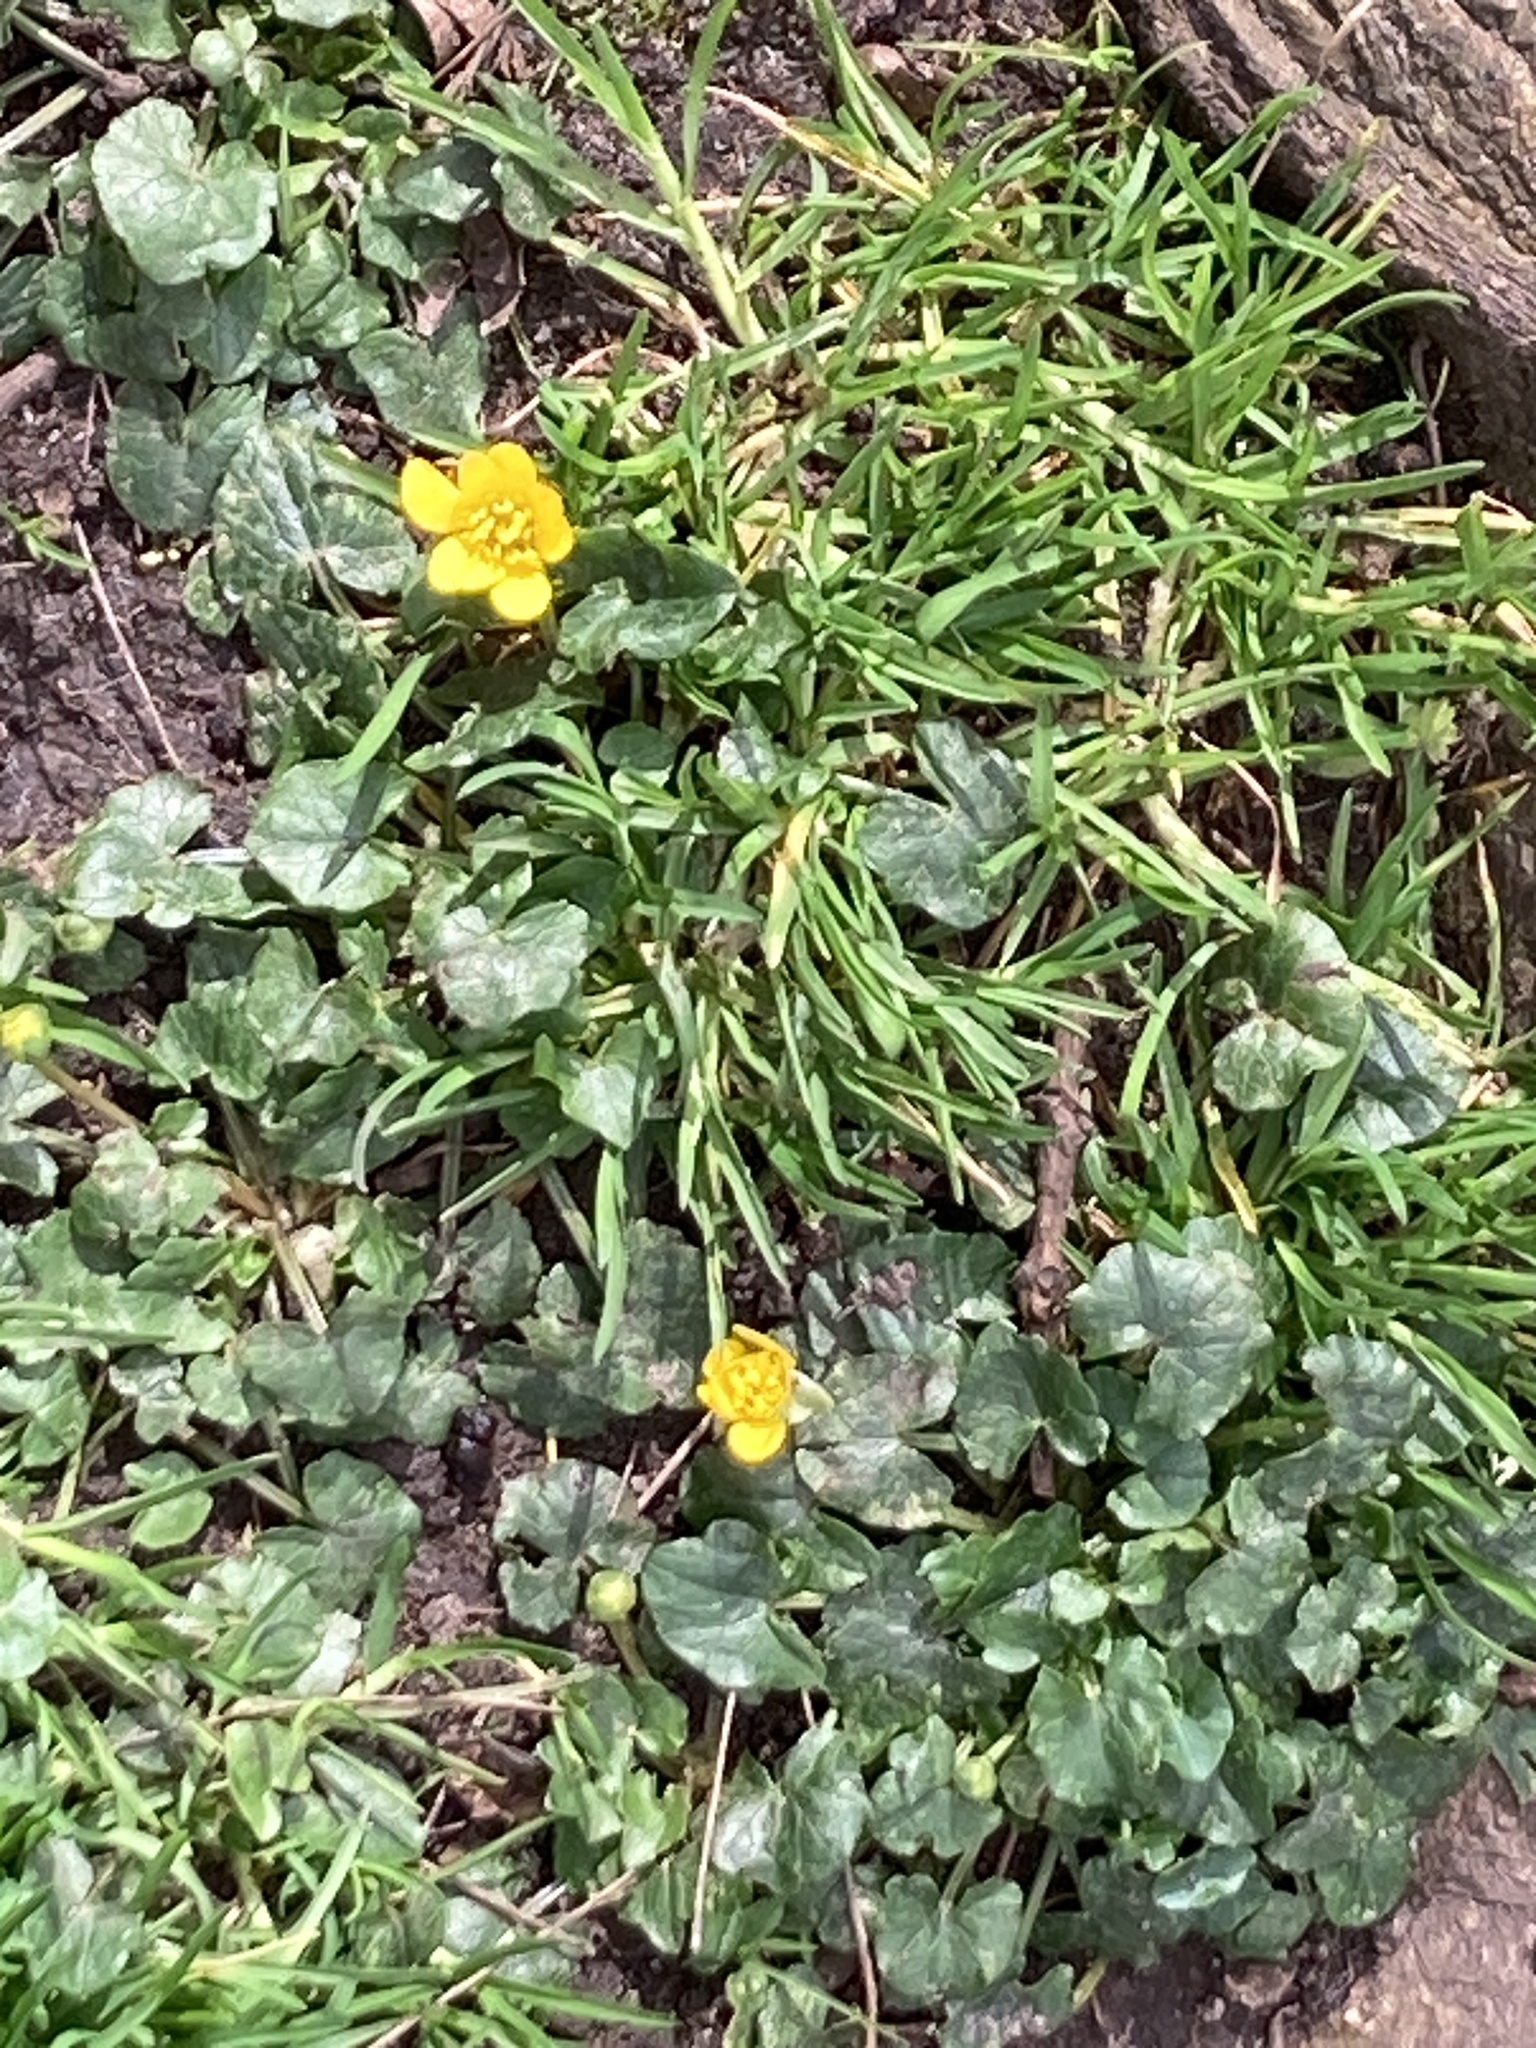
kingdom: Plantae
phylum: Tracheophyta
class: Magnoliopsida
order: Ranunculales
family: Ranunculaceae
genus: Ficaria
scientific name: Ficaria verna
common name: Lesser celandine
